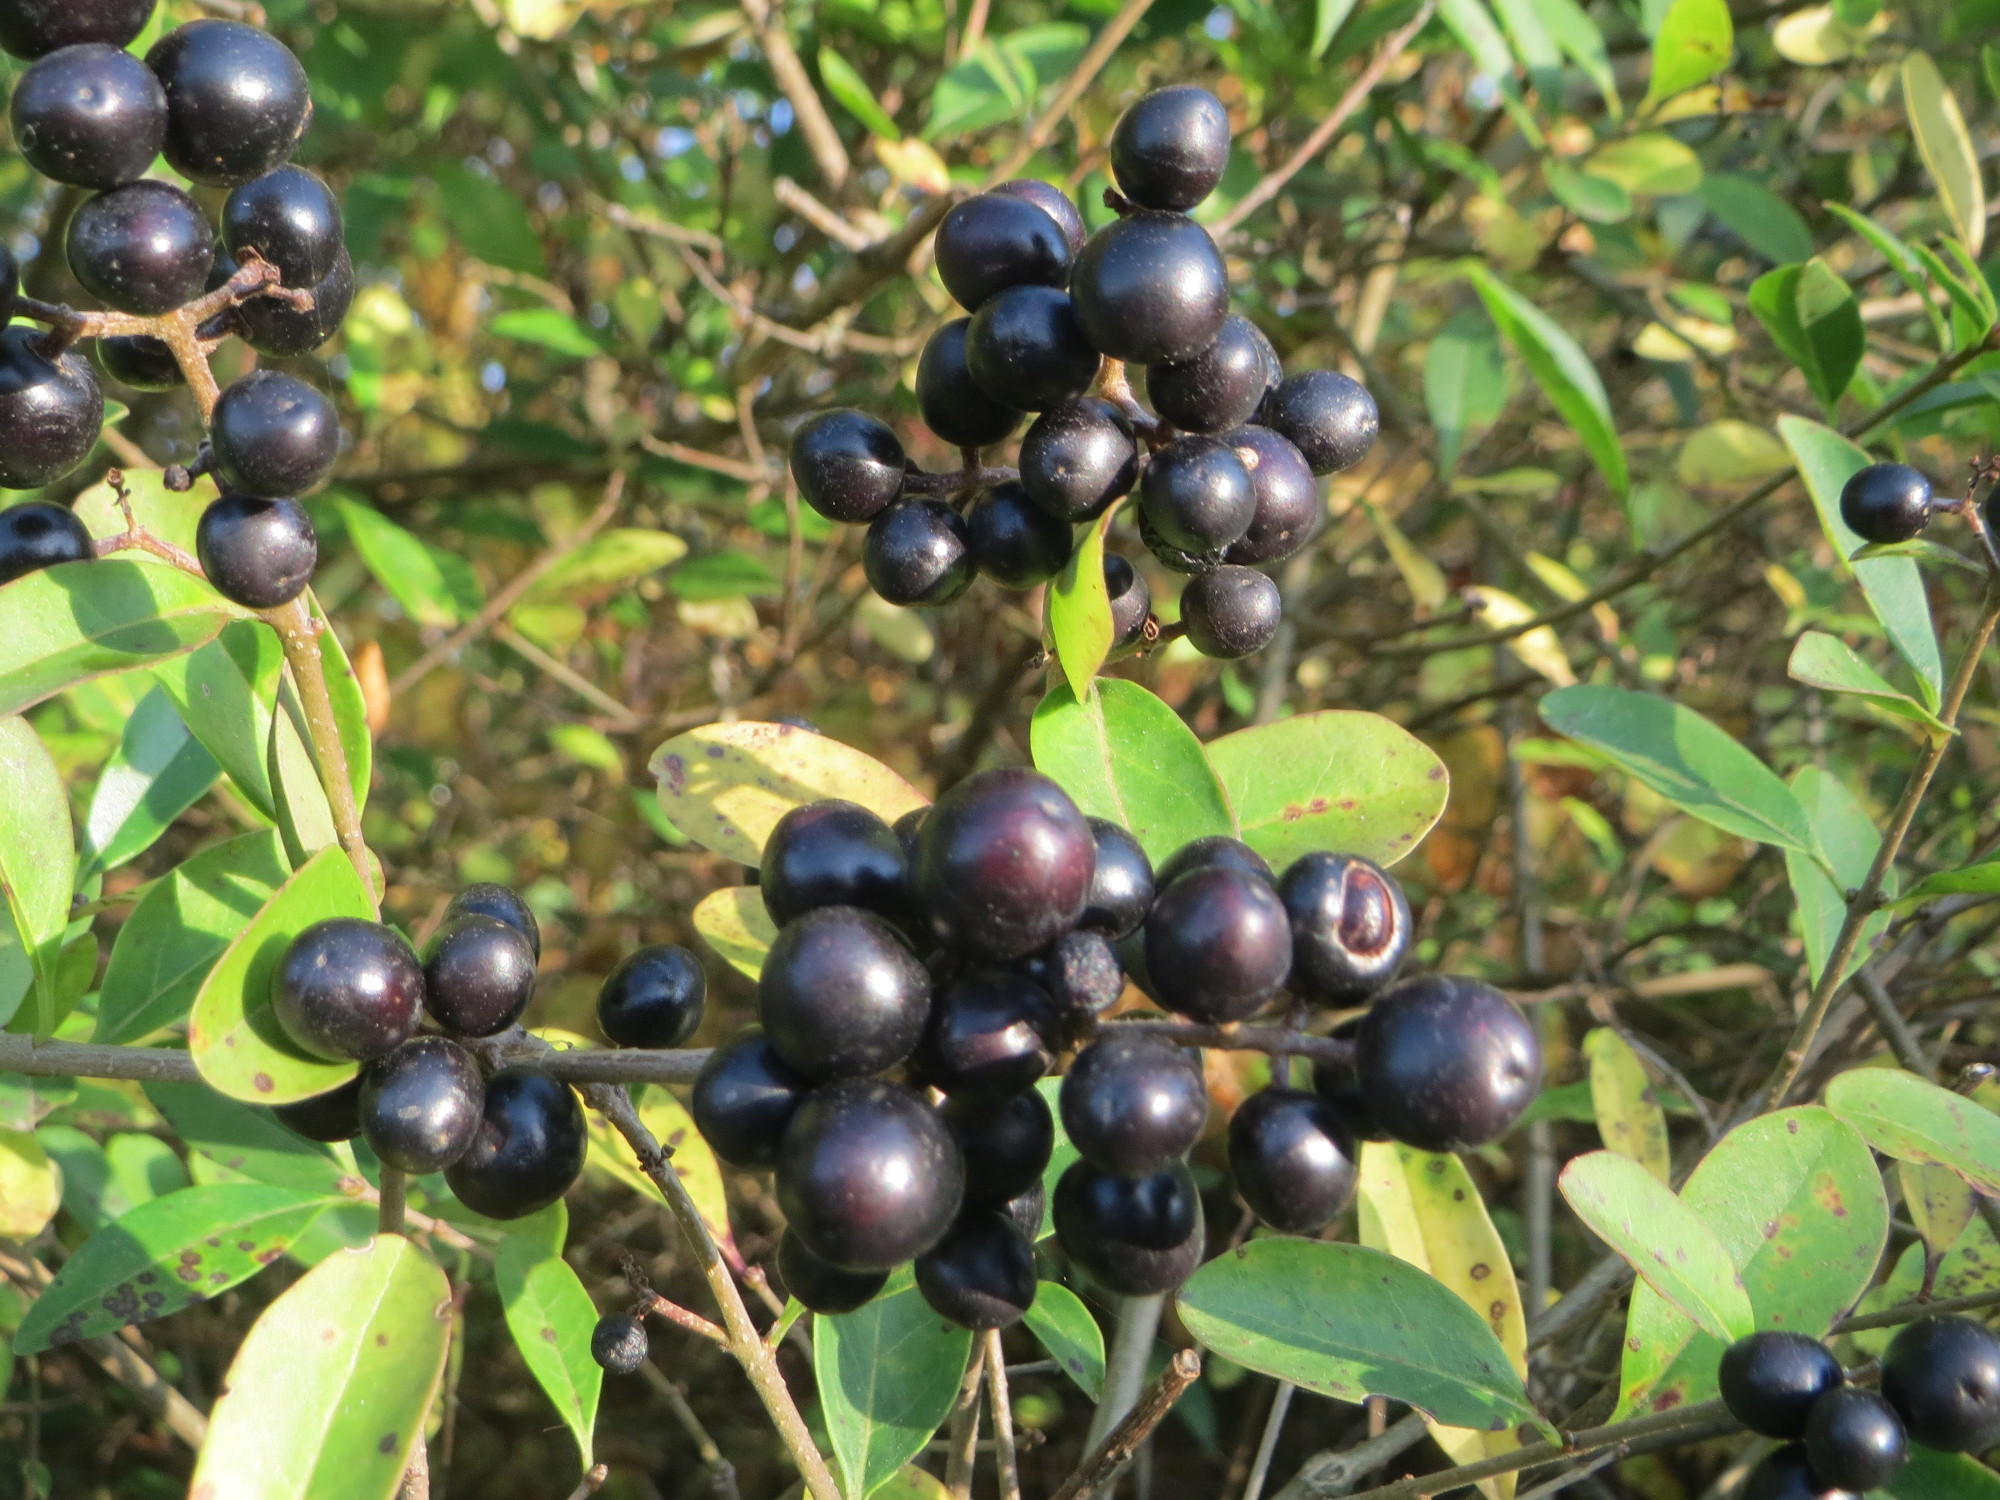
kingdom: Plantae
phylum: Tracheophyta
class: Magnoliopsida
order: Lamiales
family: Oleaceae
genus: Ligustrum
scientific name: Ligustrum vulgare
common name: Wild privet
